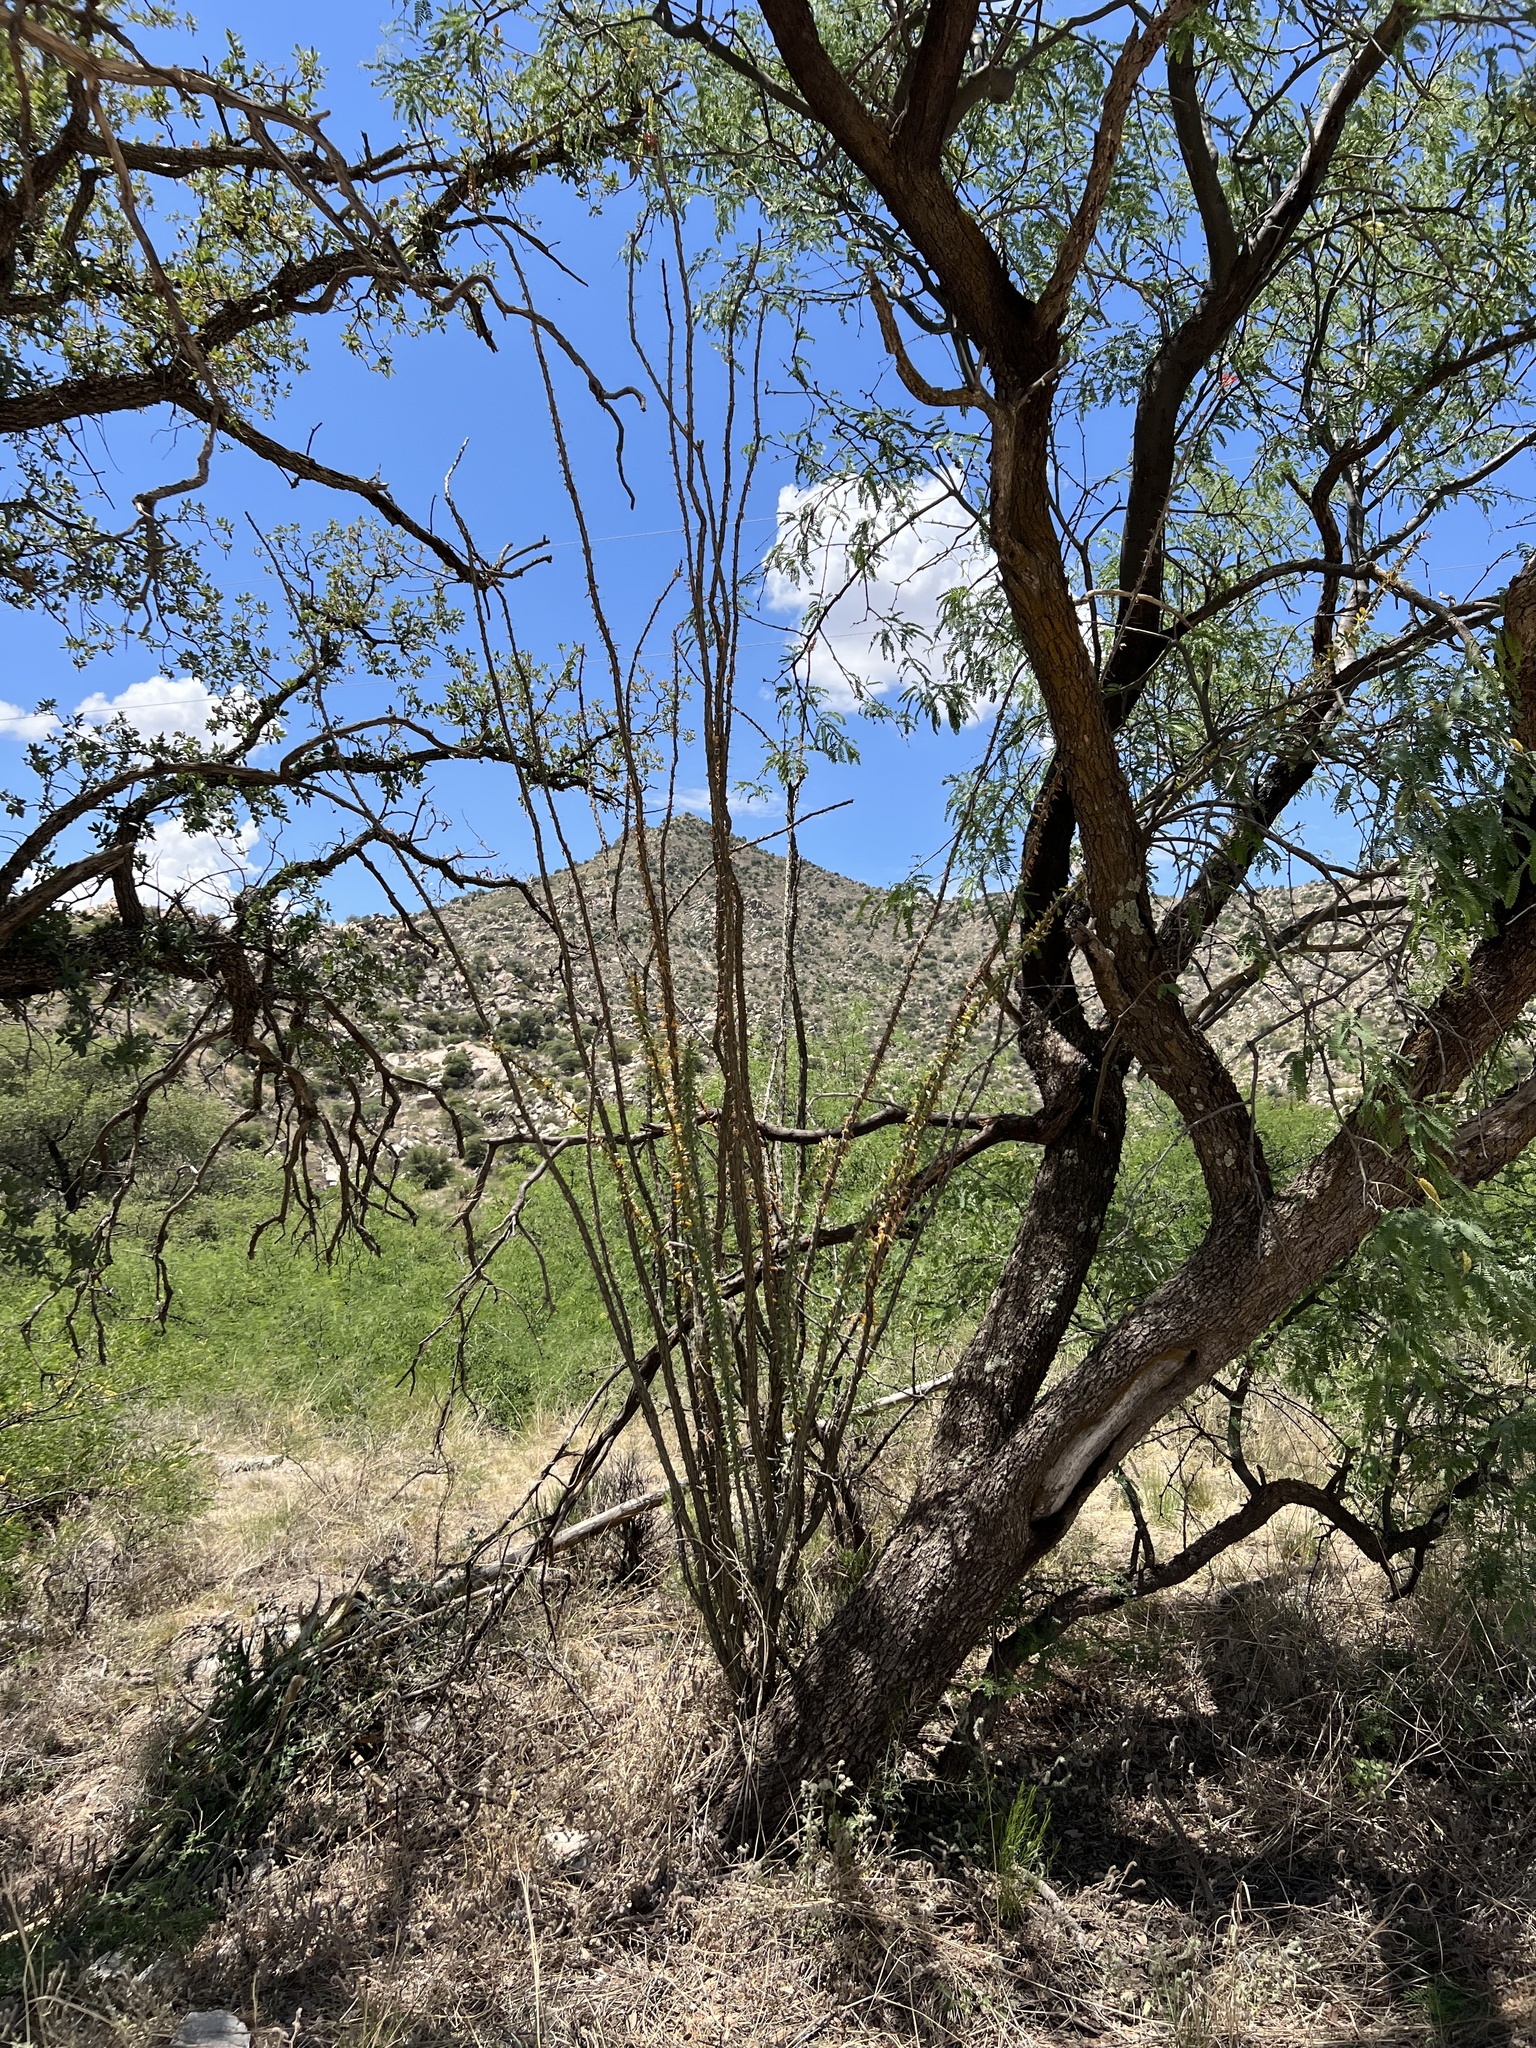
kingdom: Plantae
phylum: Tracheophyta
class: Magnoliopsida
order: Ericales
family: Fouquieriaceae
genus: Fouquieria
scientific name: Fouquieria splendens
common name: Vine-cactus
